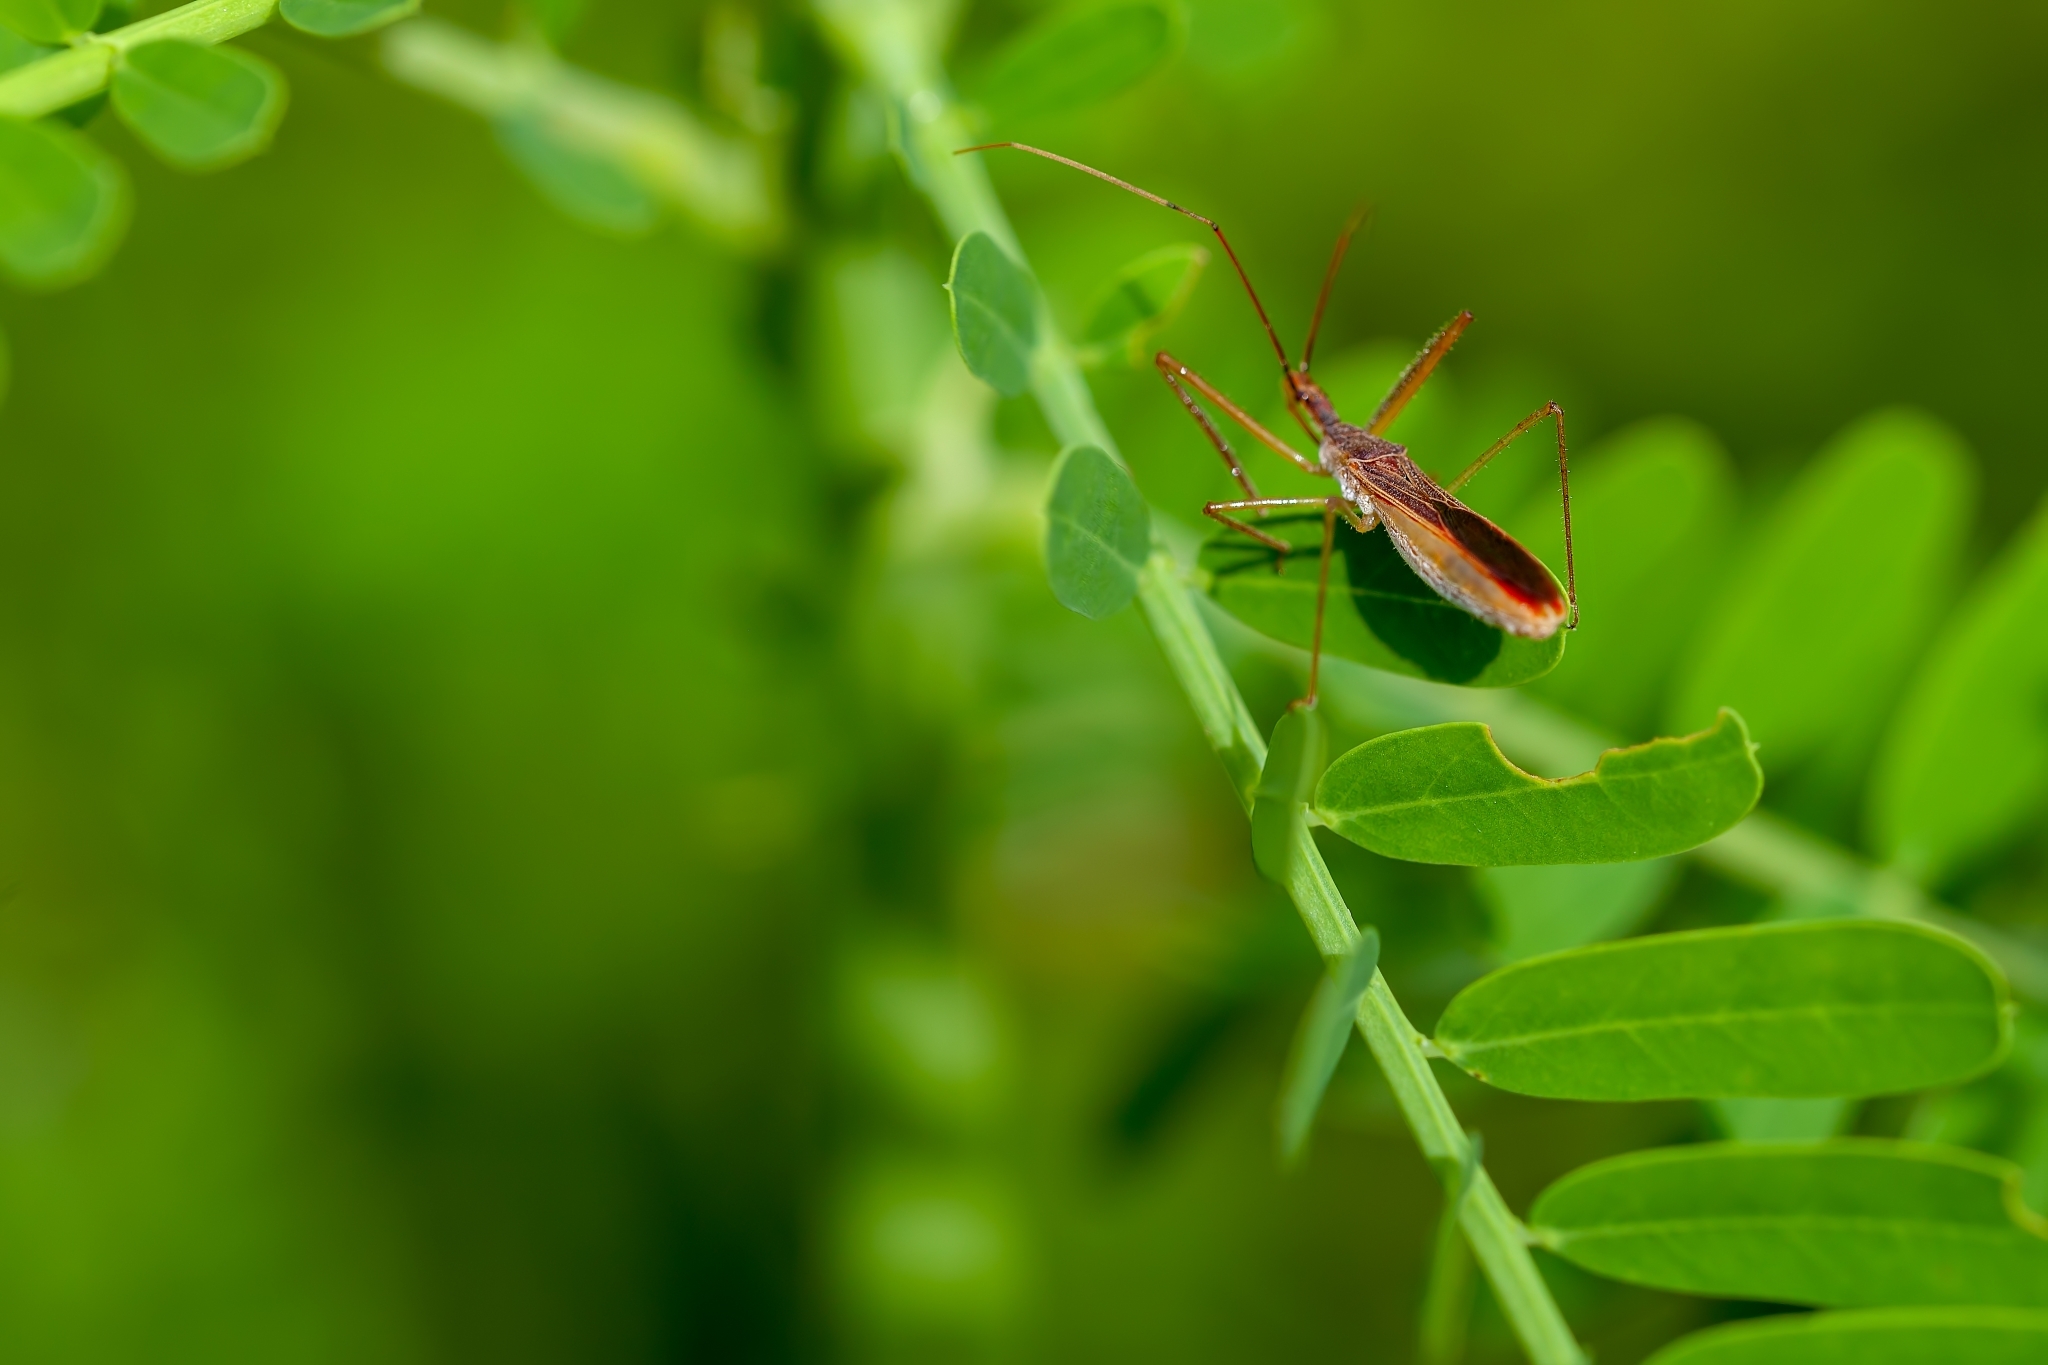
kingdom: Animalia
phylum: Arthropoda
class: Insecta
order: Hemiptera
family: Reduviidae
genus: Zelus
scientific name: Zelus cervicalis
